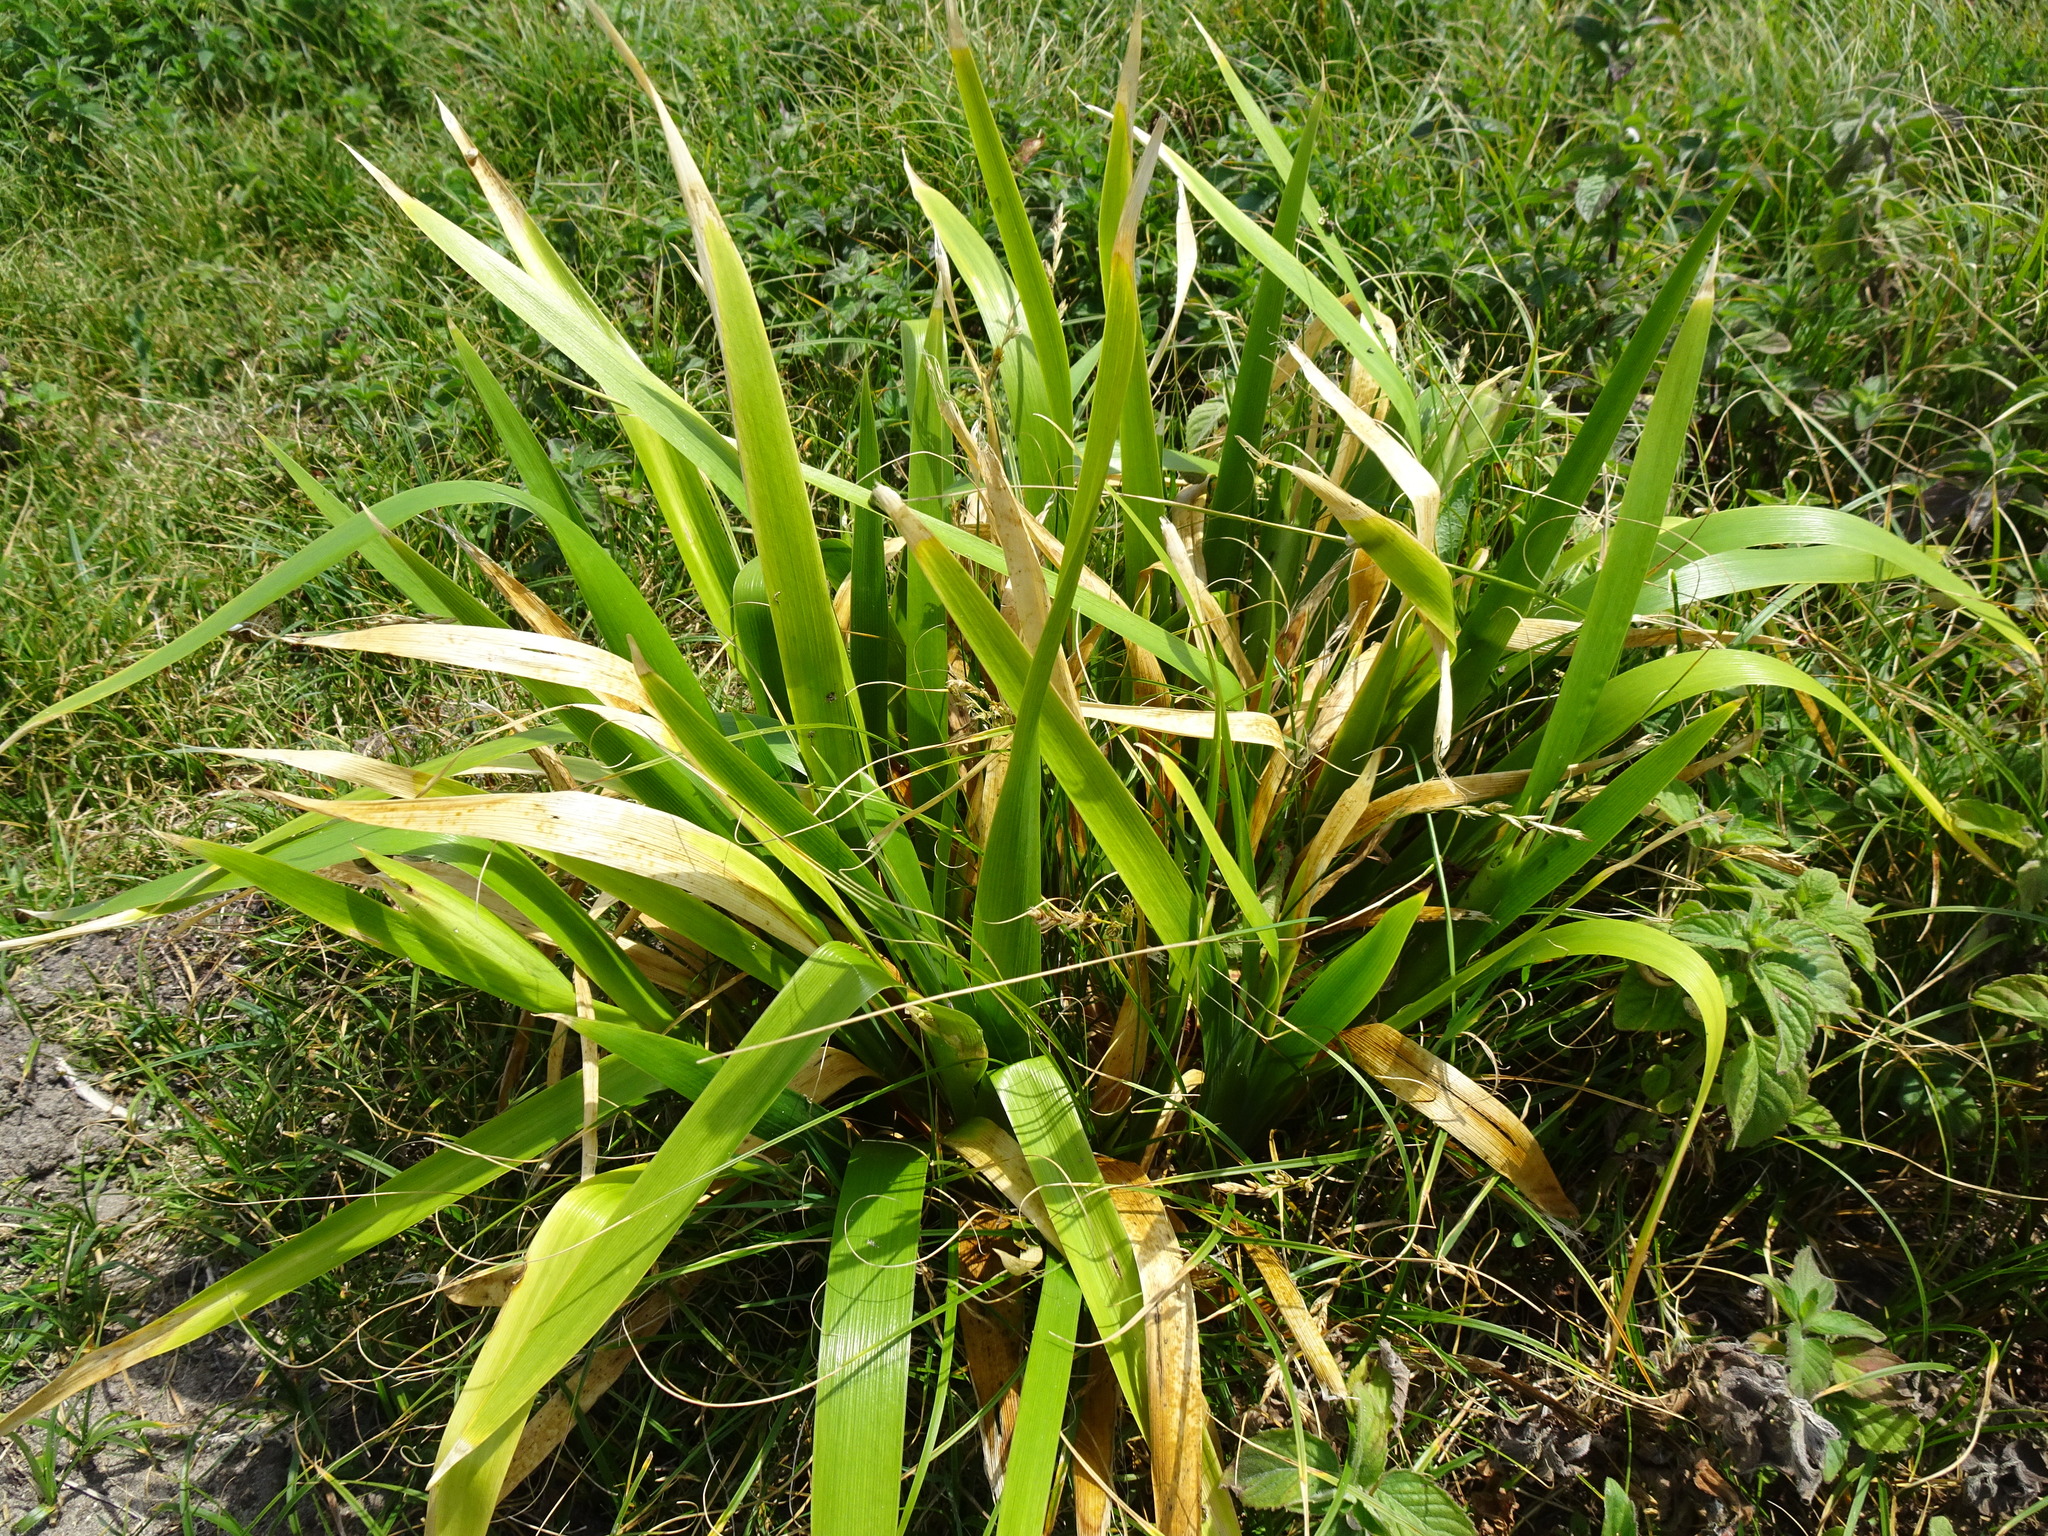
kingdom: Plantae
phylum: Tracheophyta
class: Liliopsida
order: Asparagales
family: Iridaceae
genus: Iris
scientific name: Iris foetidissima
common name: Stinking iris
